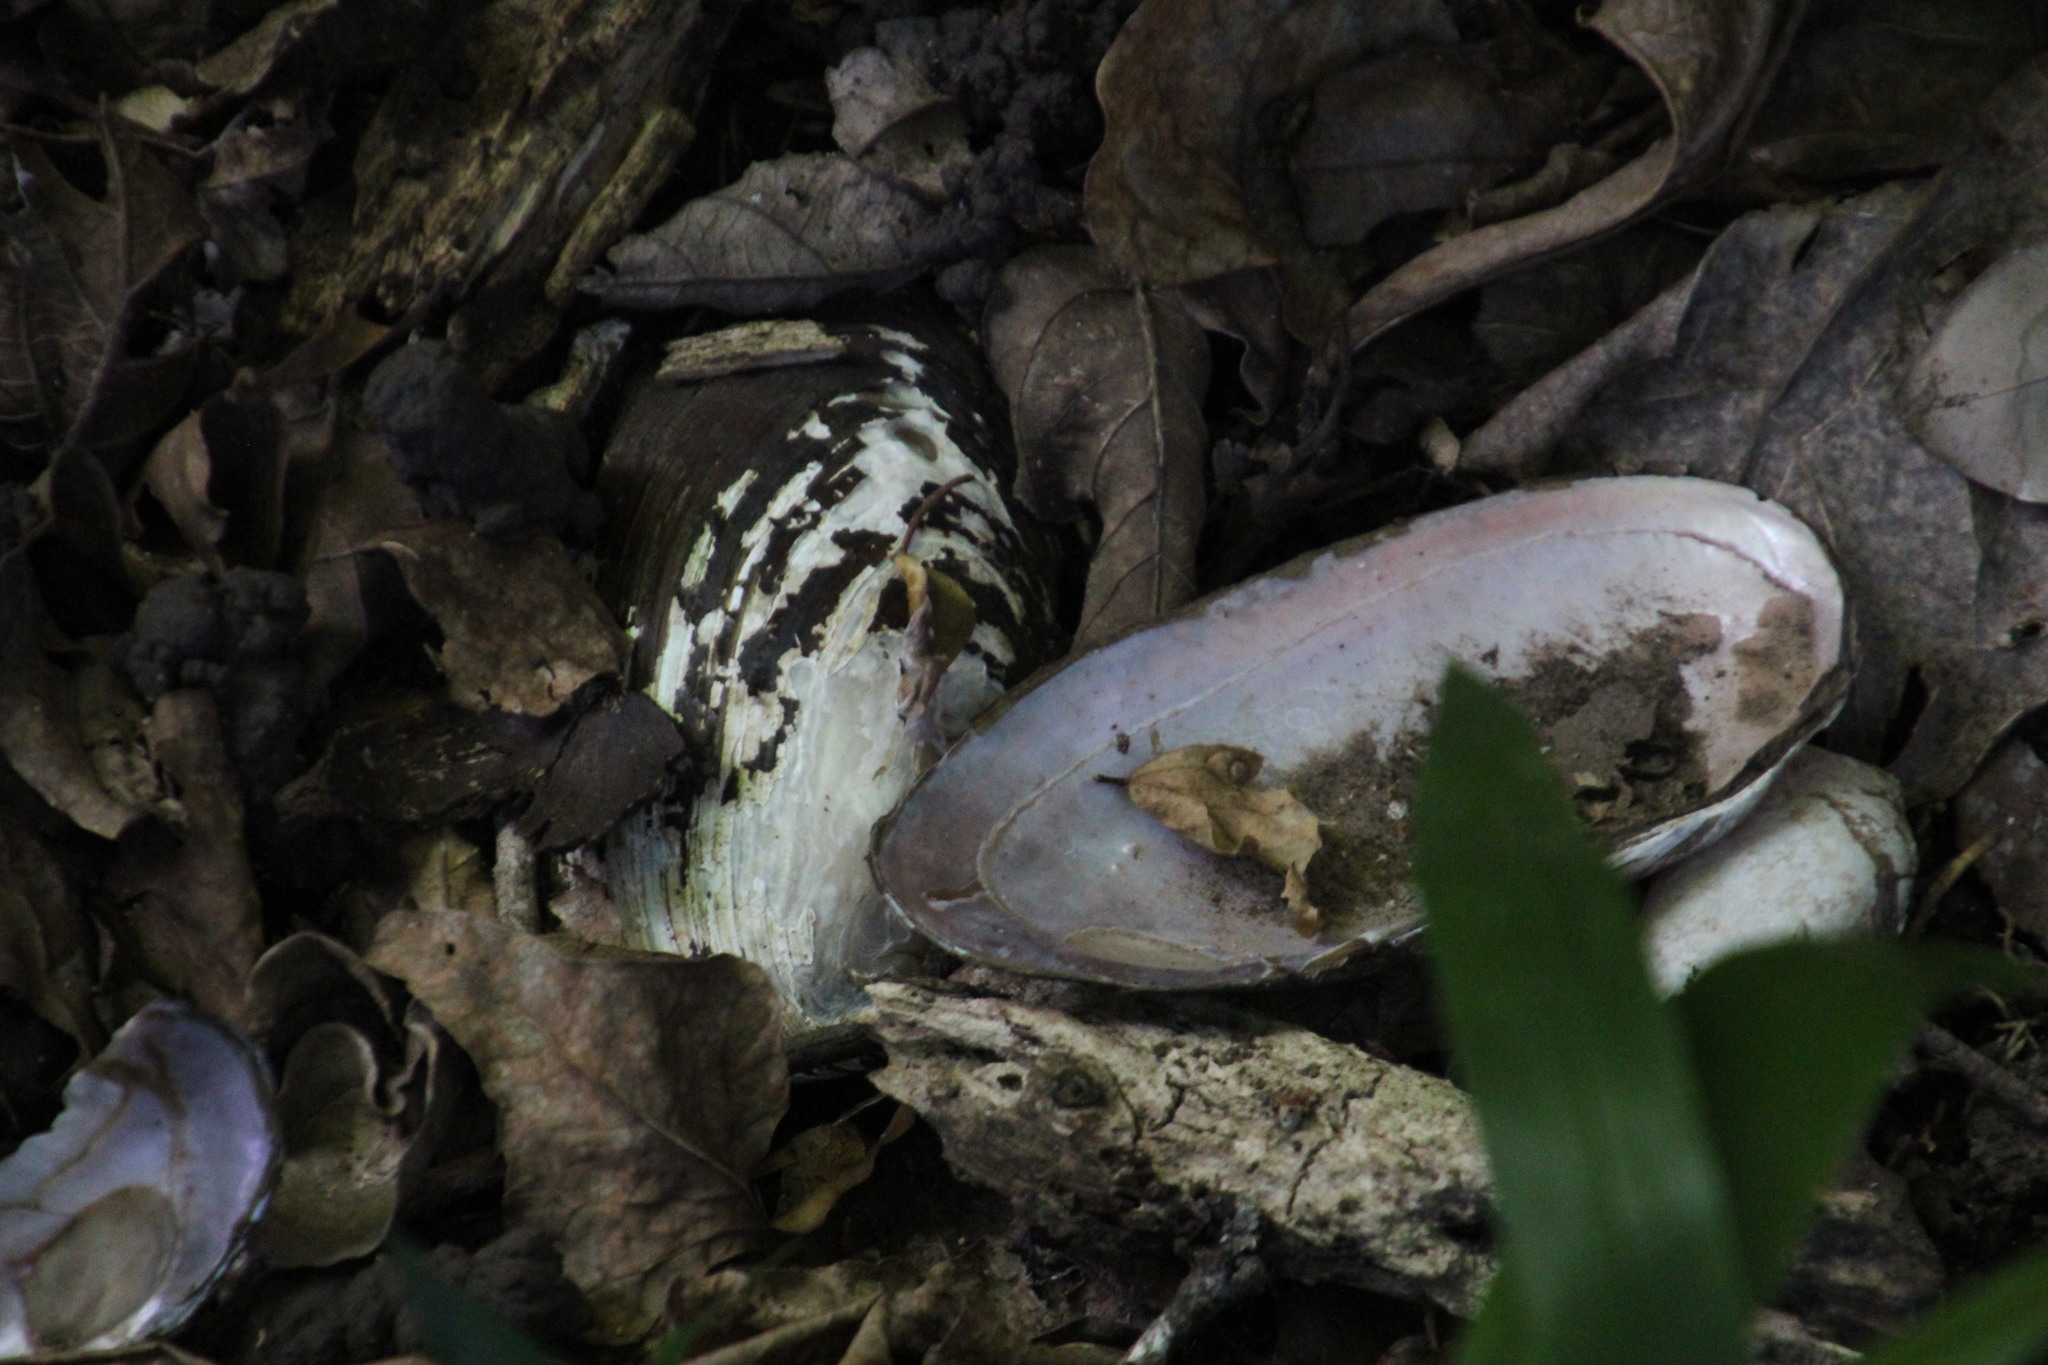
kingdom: Animalia
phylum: Mollusca
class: Bivalvia
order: Unionida
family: Iridinidae
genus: Chambardia
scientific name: Chambardia wahlbergi
